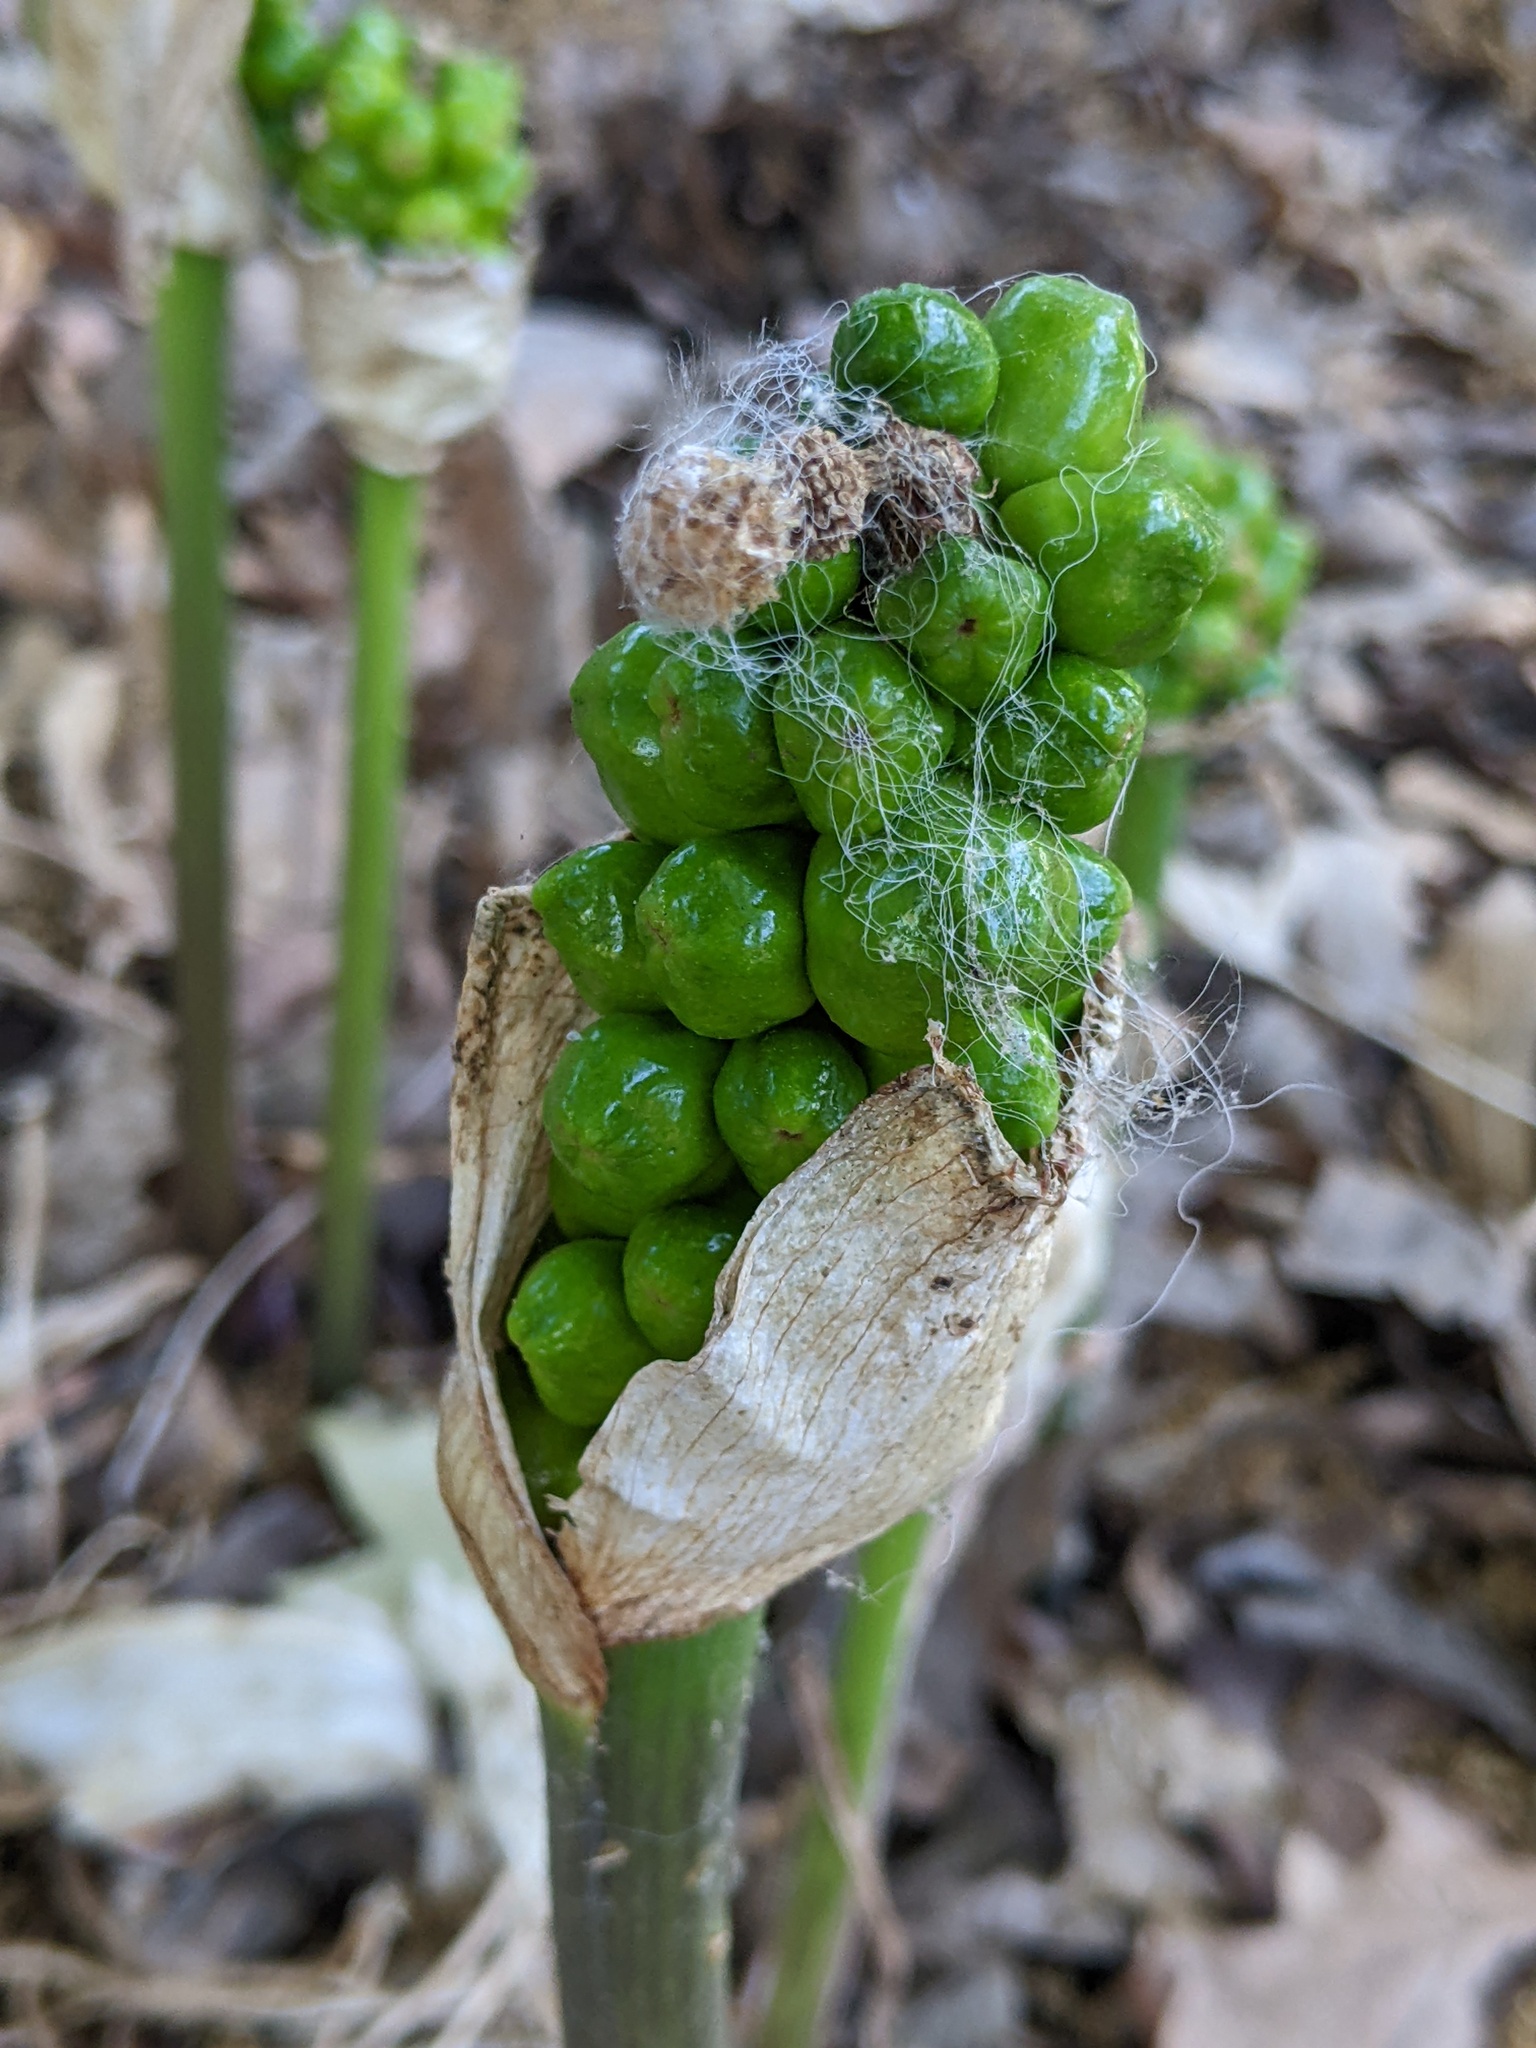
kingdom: Plantae
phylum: Tracheophyta
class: Liliopsida
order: Alismatales
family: Araceae
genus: Arum
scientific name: Arum italicum
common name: Italian lords-and-ladies
